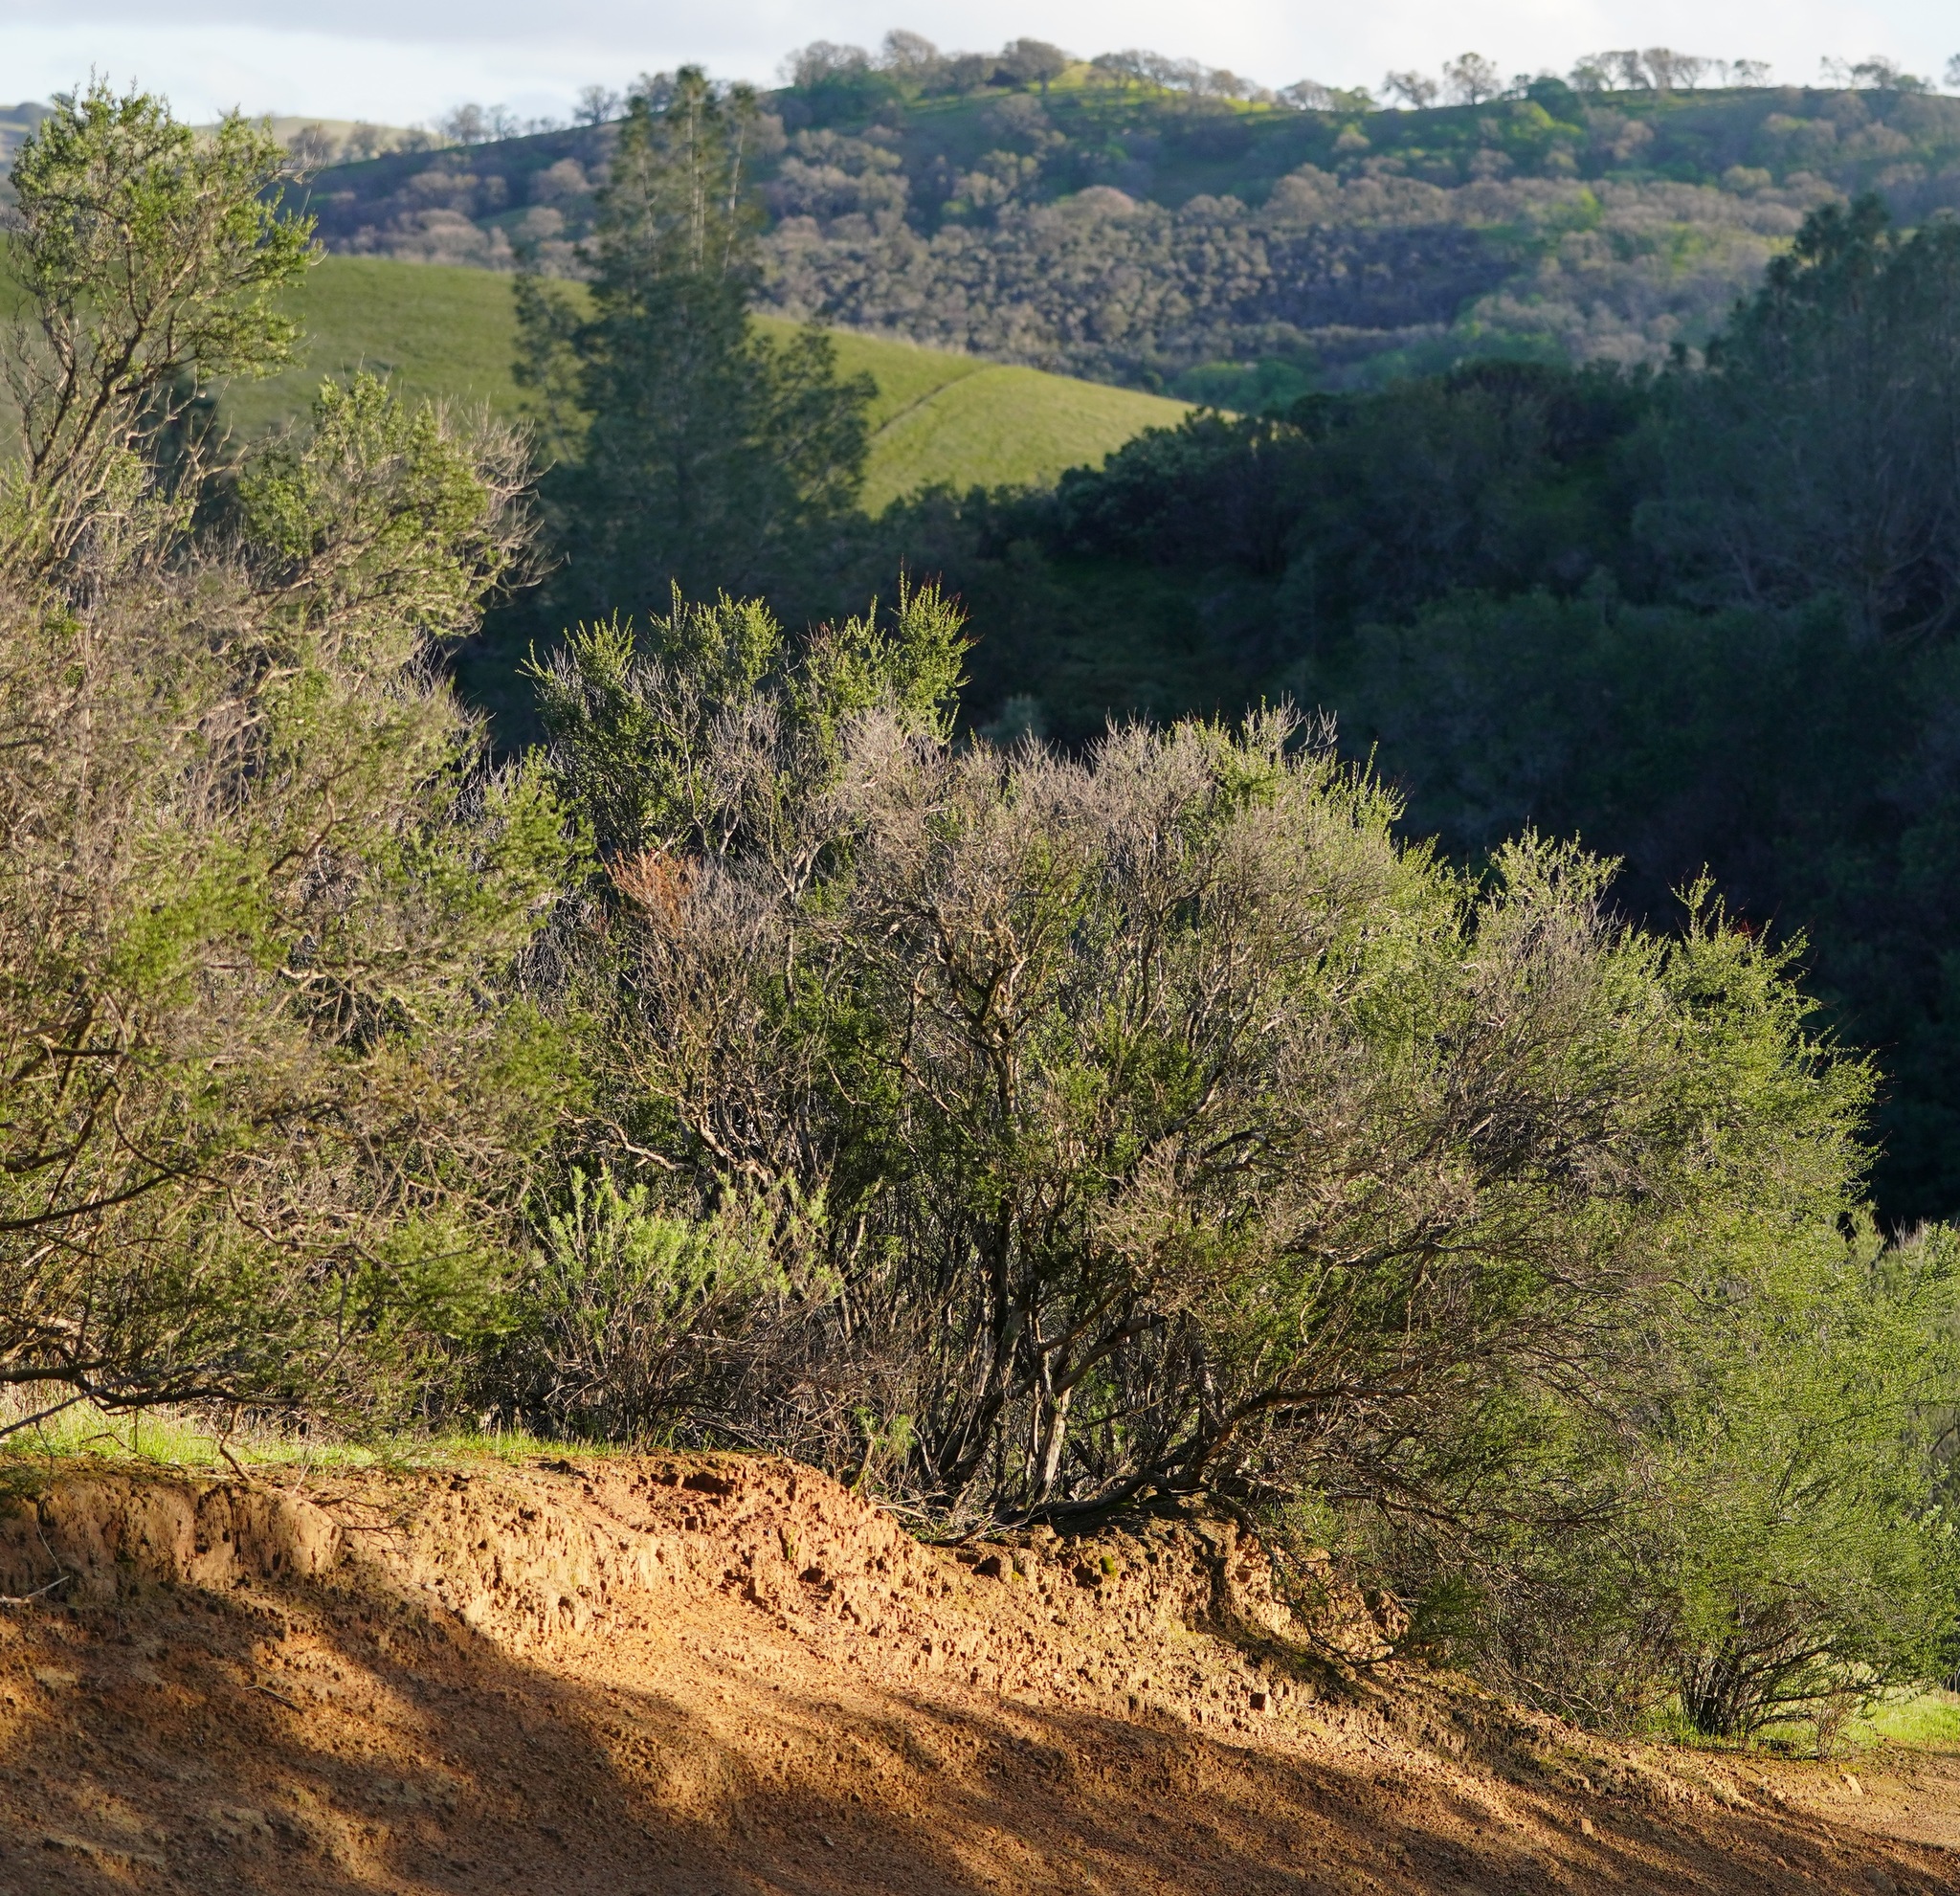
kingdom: Plantae
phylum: Tracheophyta
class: Magnoliopsida
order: Rosales
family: Rosaceae
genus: Adenostoma
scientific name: Adenostoma fasciculatum
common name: Chamise
